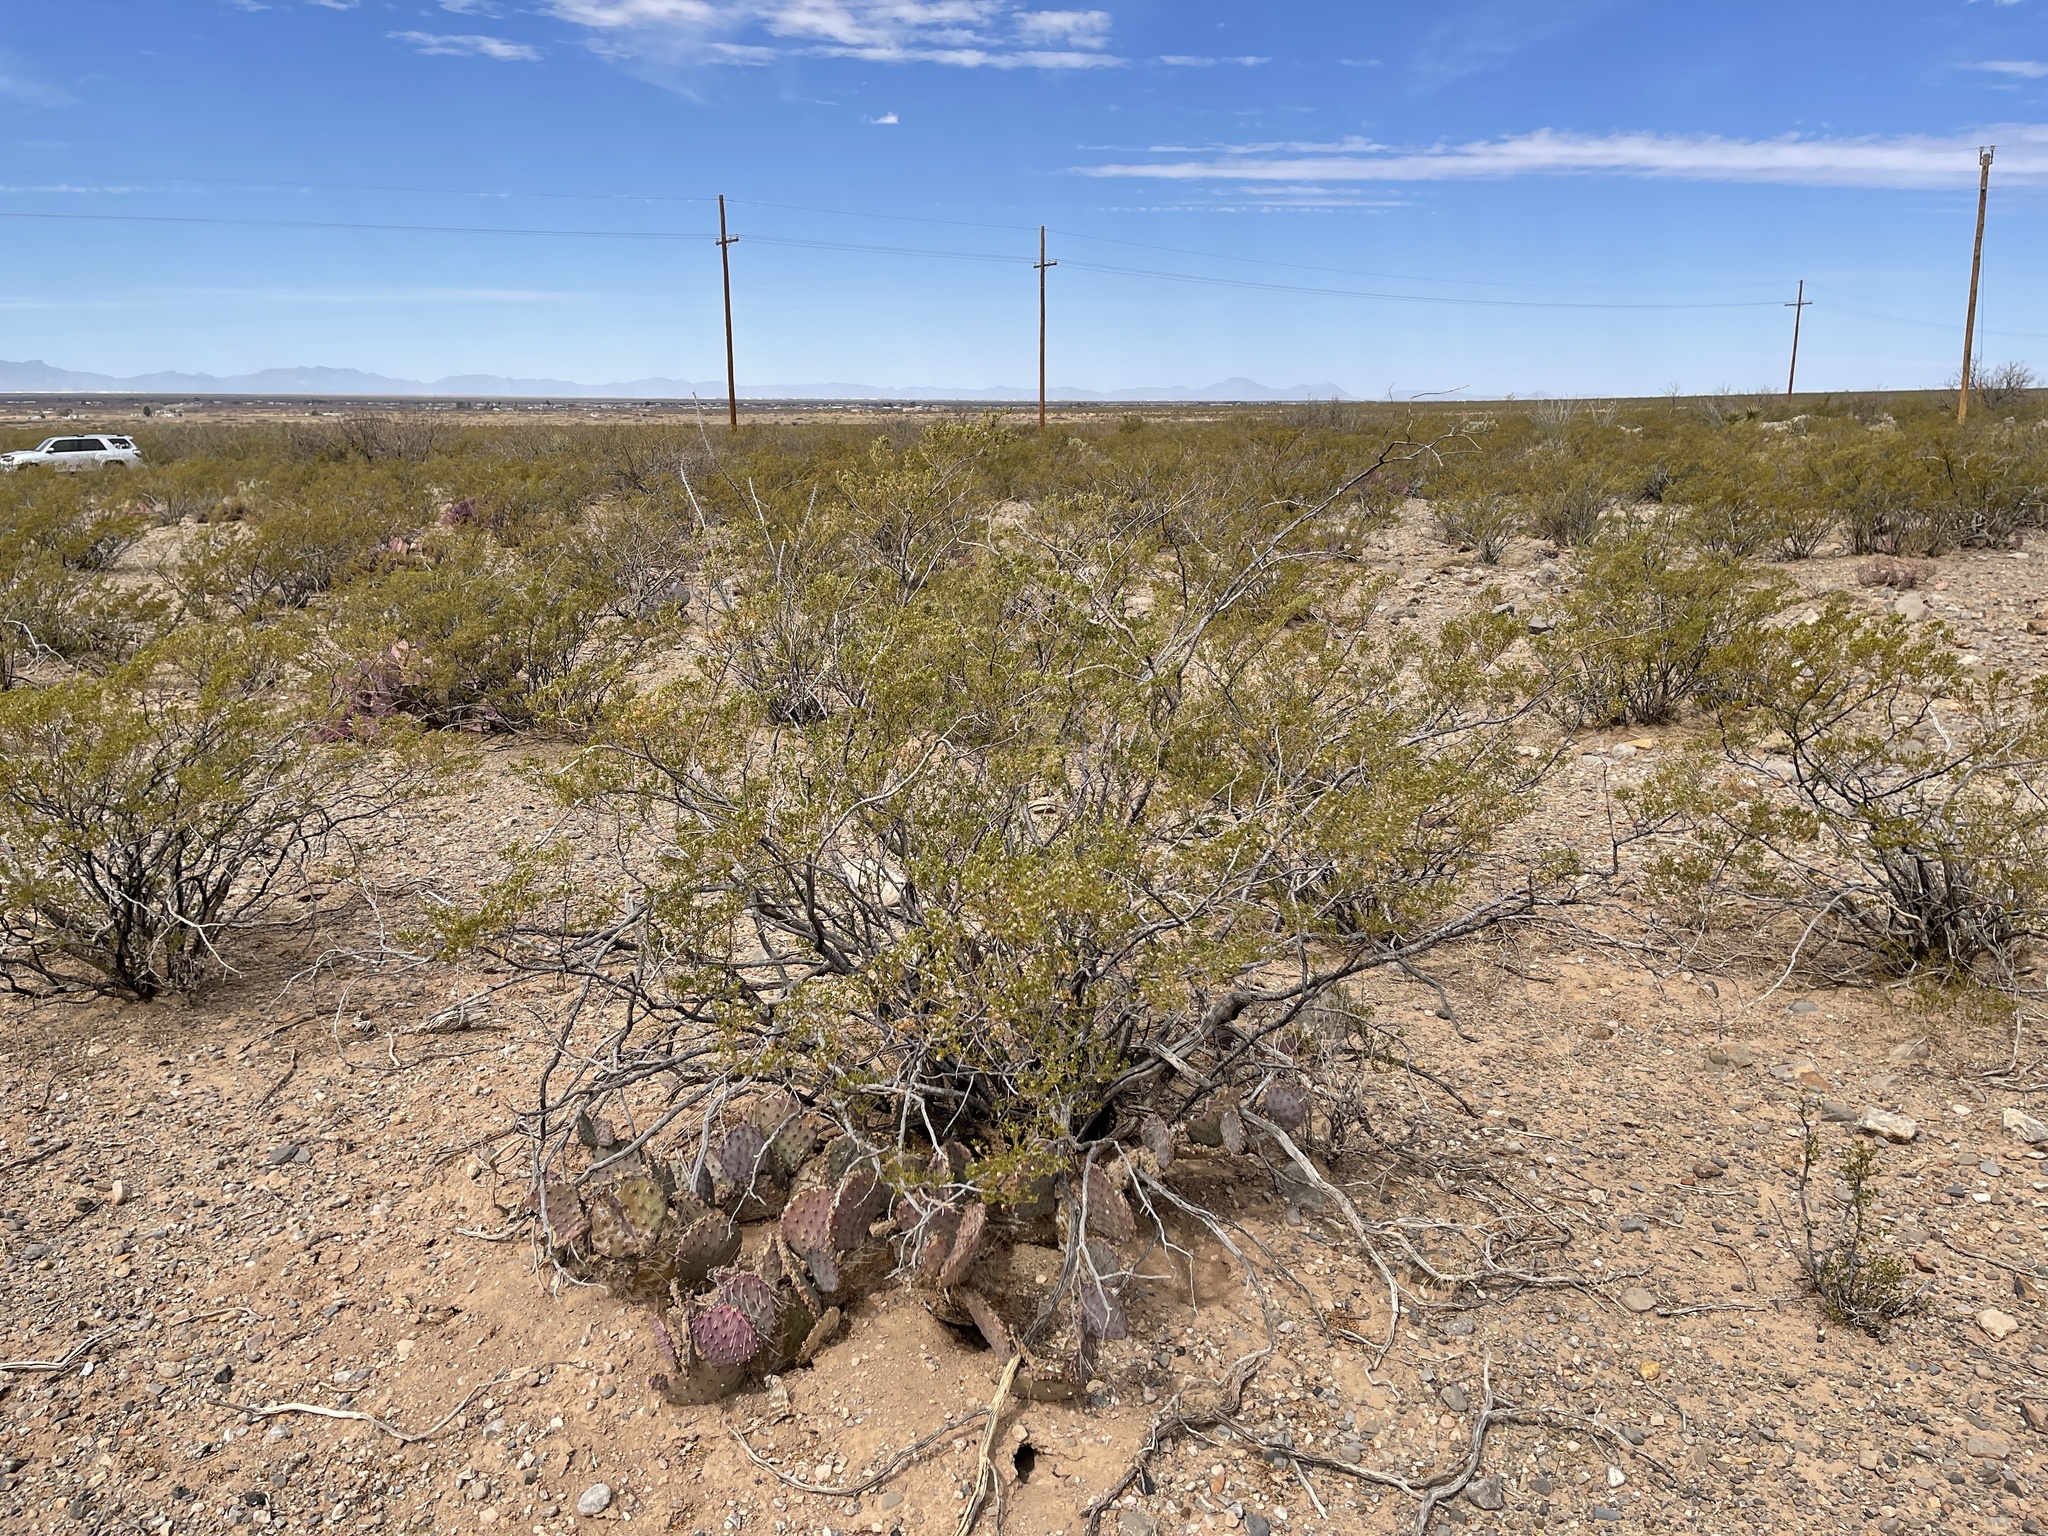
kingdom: Plantae
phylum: Tracheophyta
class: Magnoliopsida
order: Zygophyllales
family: Zygophyllaceae
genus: Larrea
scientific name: Larrea tridentata
